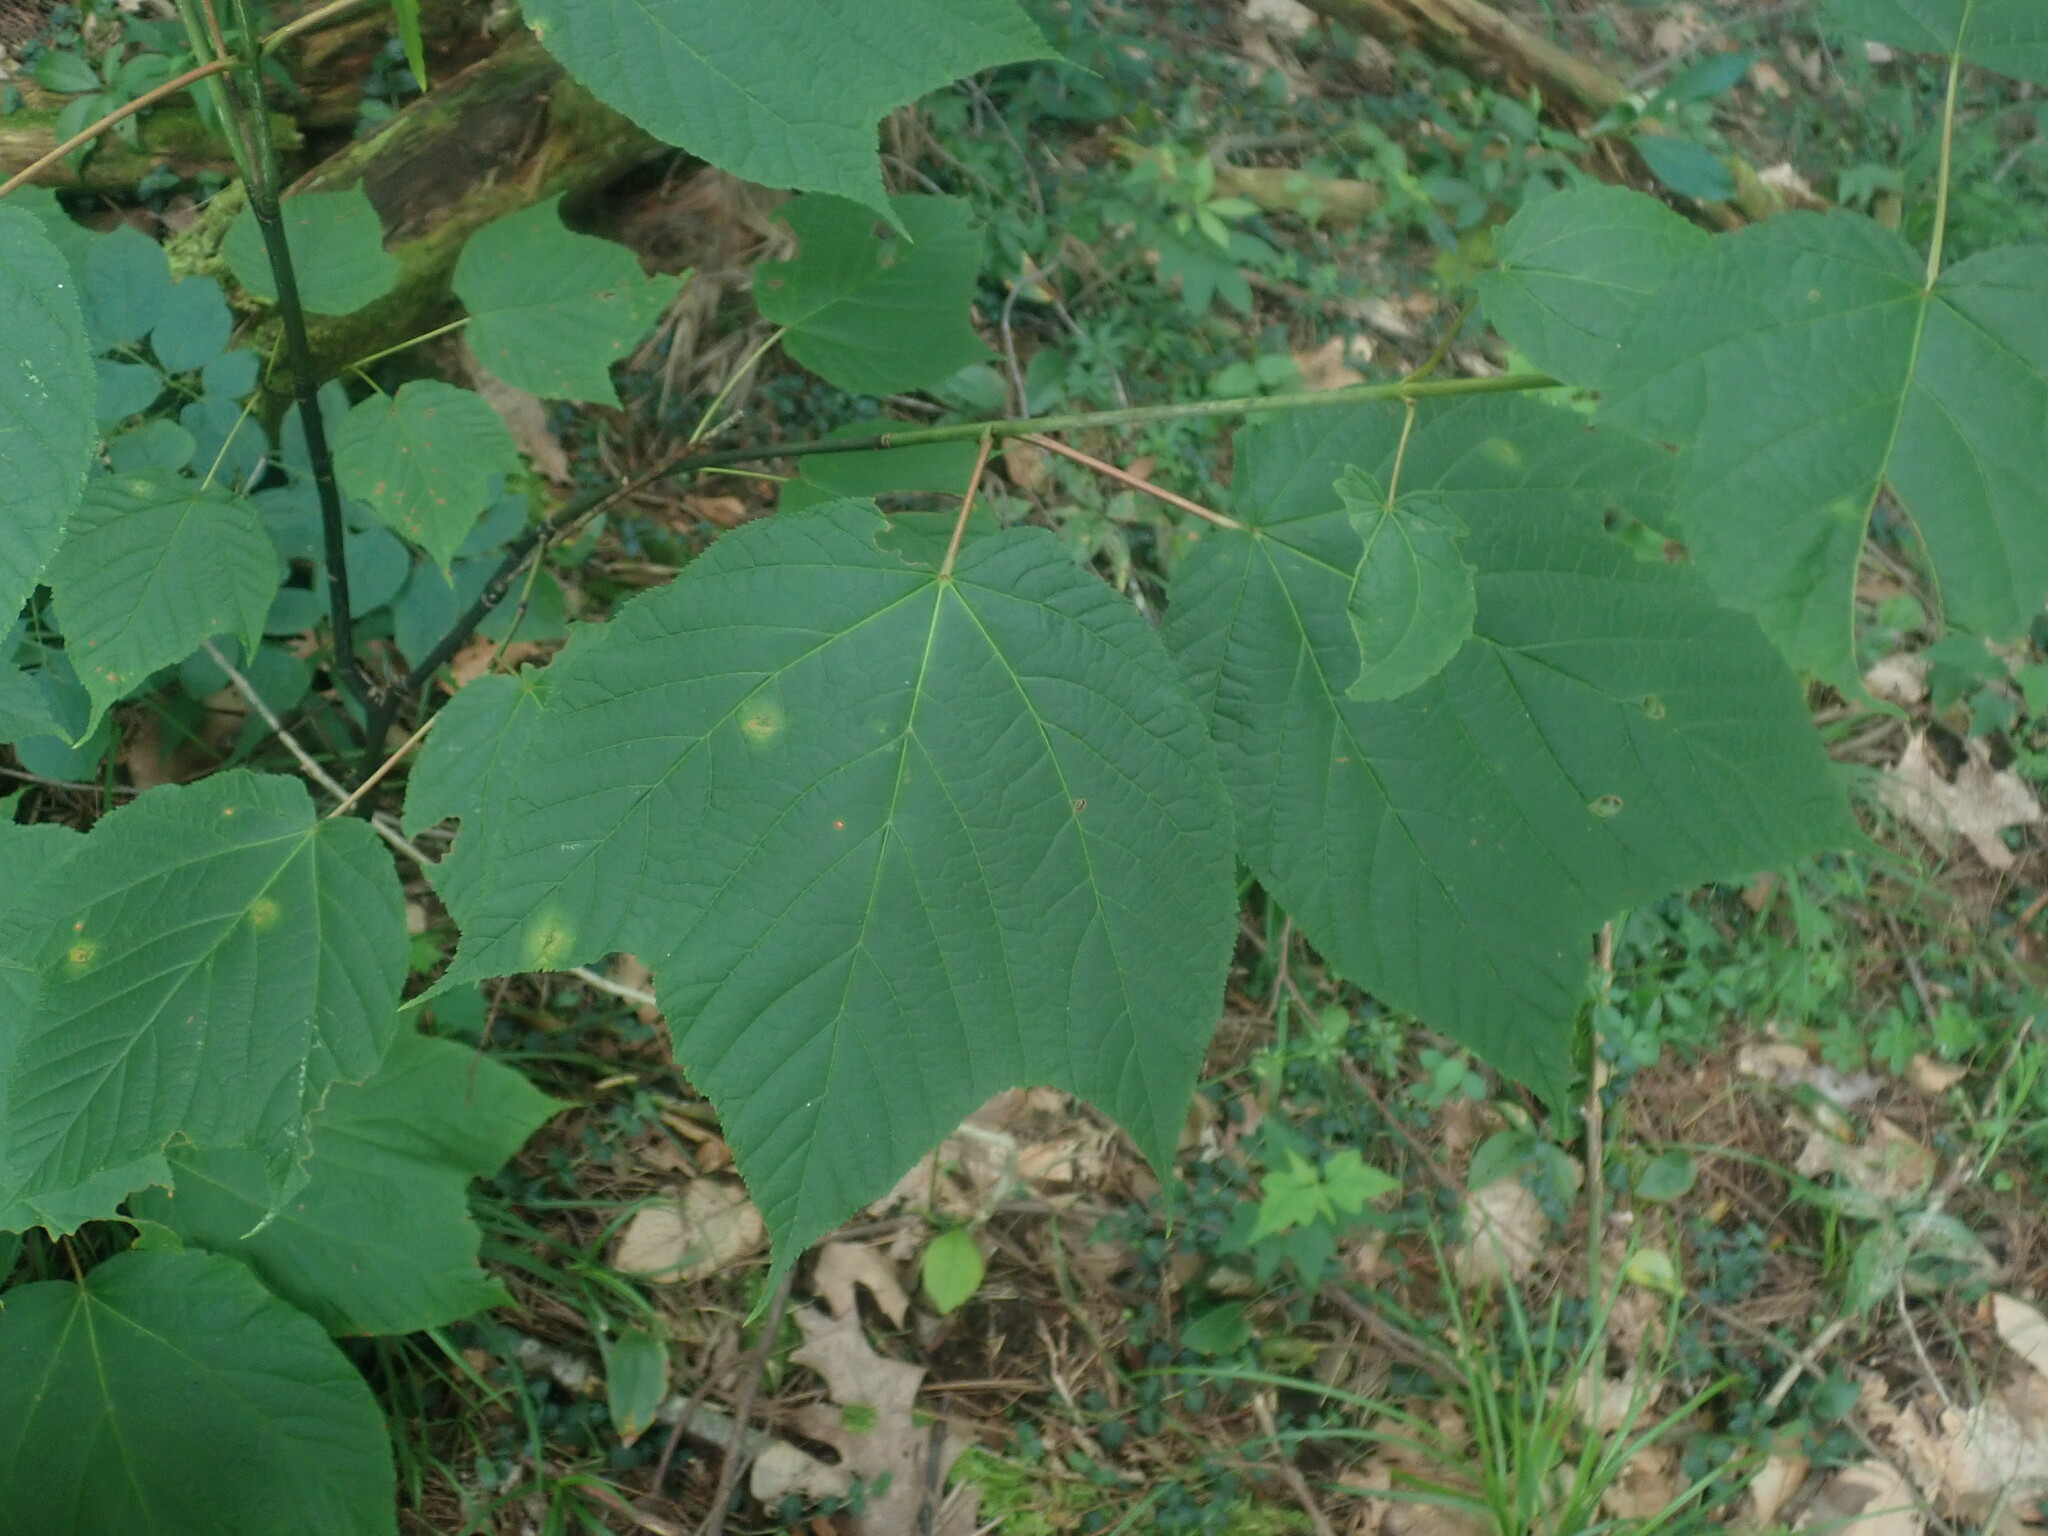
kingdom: Plantae
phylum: Tracheophyta
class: Magnoliopsida
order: Sapindales
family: Sapindaceae
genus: Acer
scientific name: Acer pensylvanicum
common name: Moosewood
